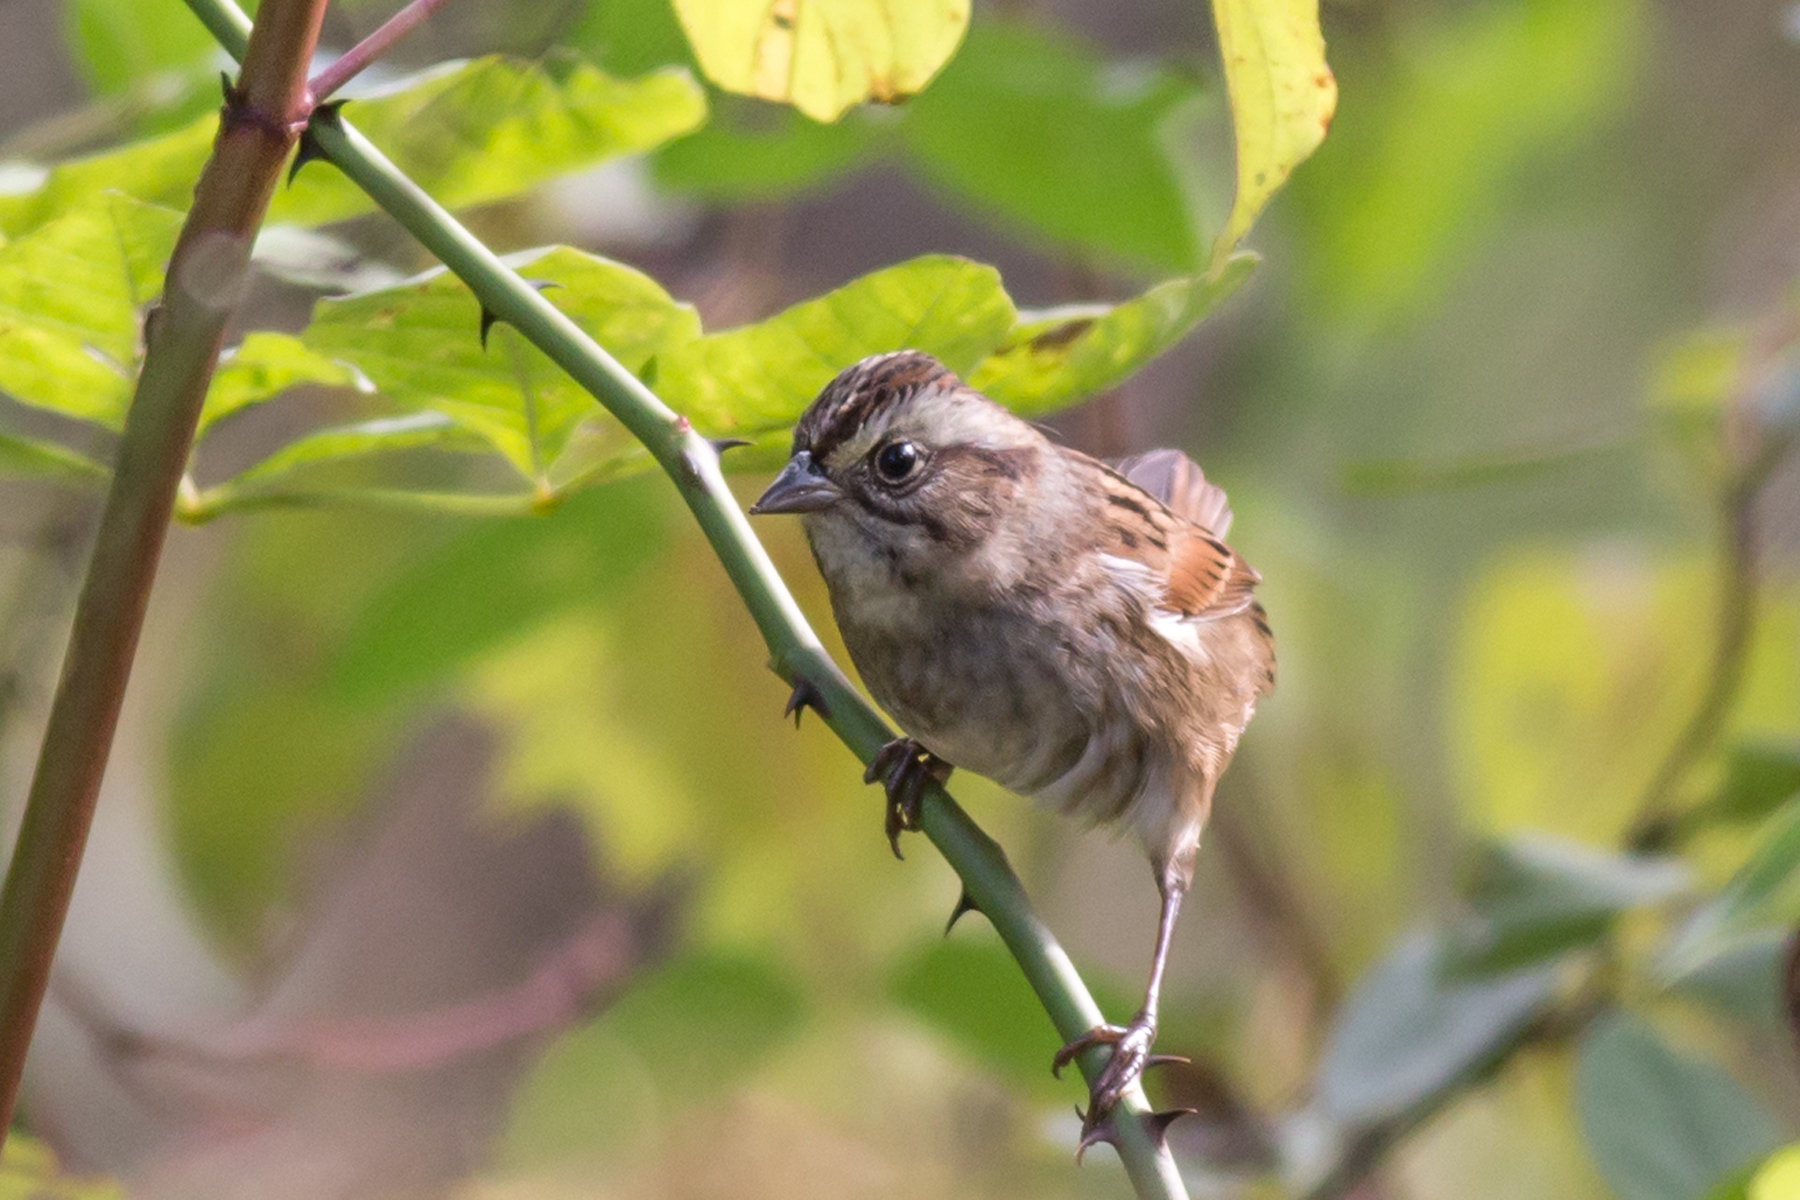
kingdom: Animalia
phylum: Chordata
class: Aves
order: Passeriformes
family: Passerellidae
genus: Melospiza
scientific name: Melospiza georgiana
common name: Swamp sparrow
